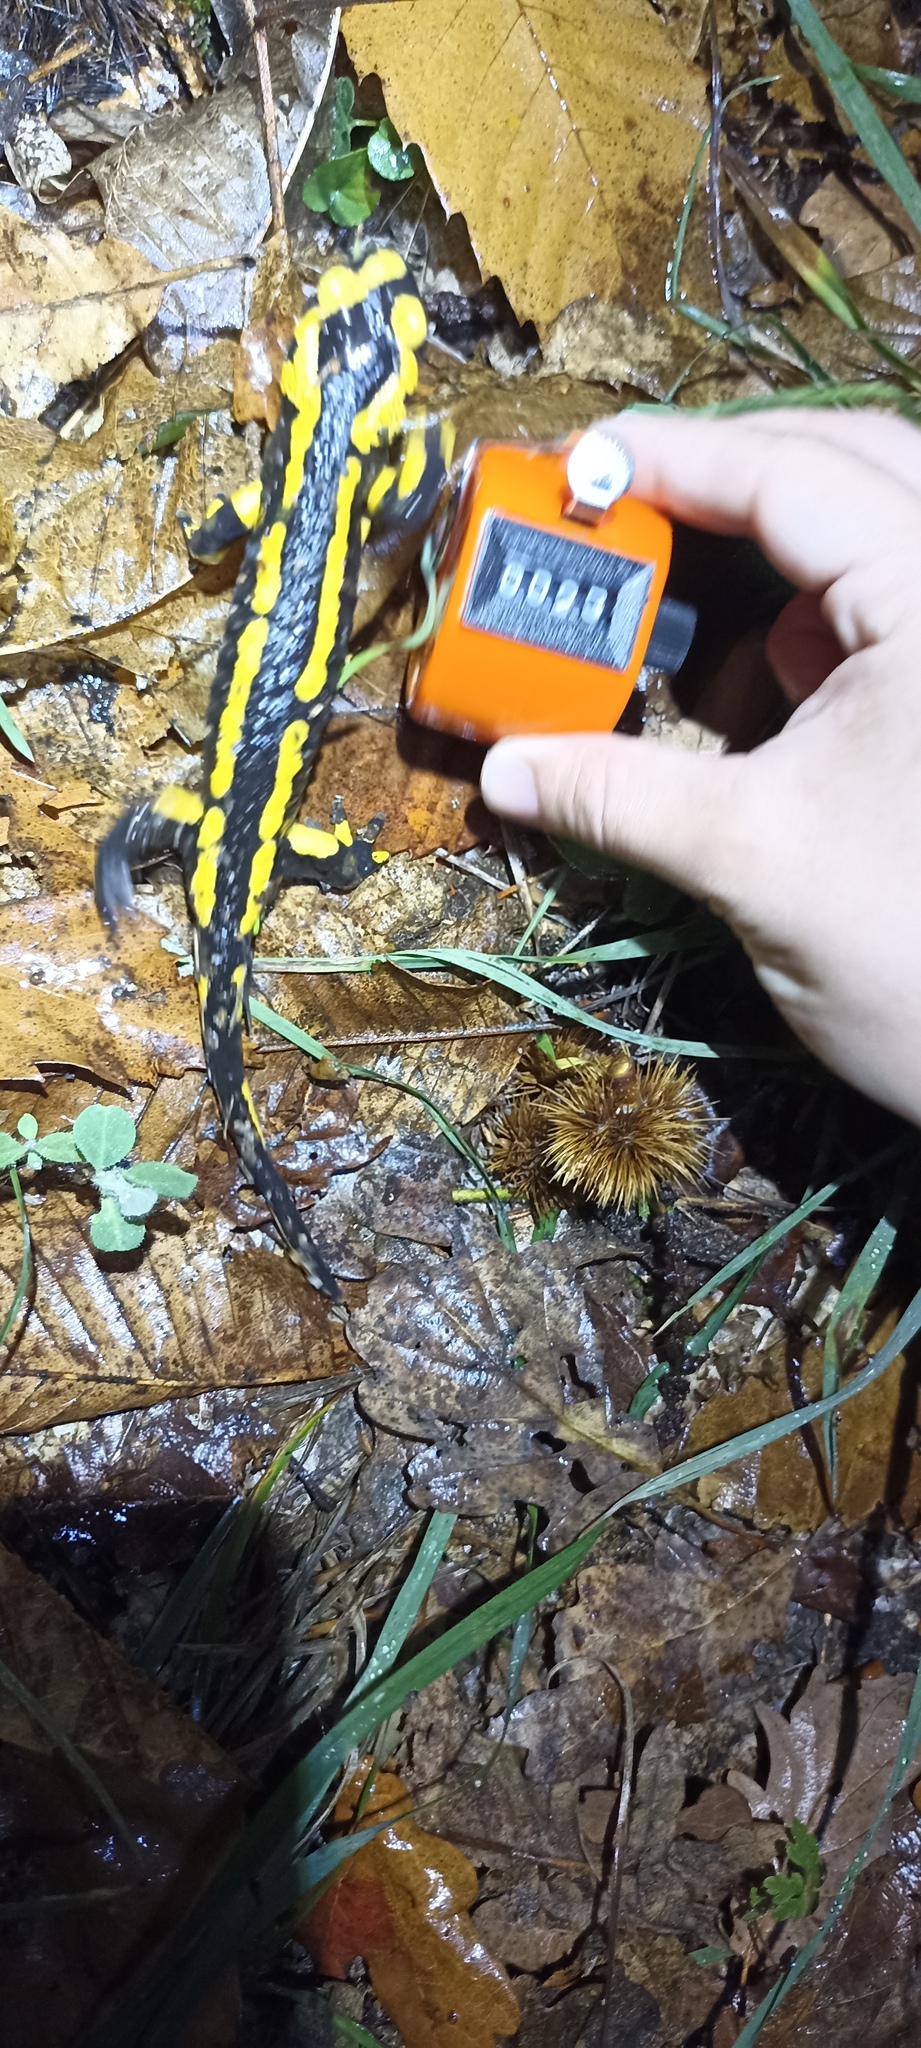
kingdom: Animalia
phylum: Chordata
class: Amphibia
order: Caudata
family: Salamandridae
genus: Salamandra
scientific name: Salamandra salamandra
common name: Fire salamander
